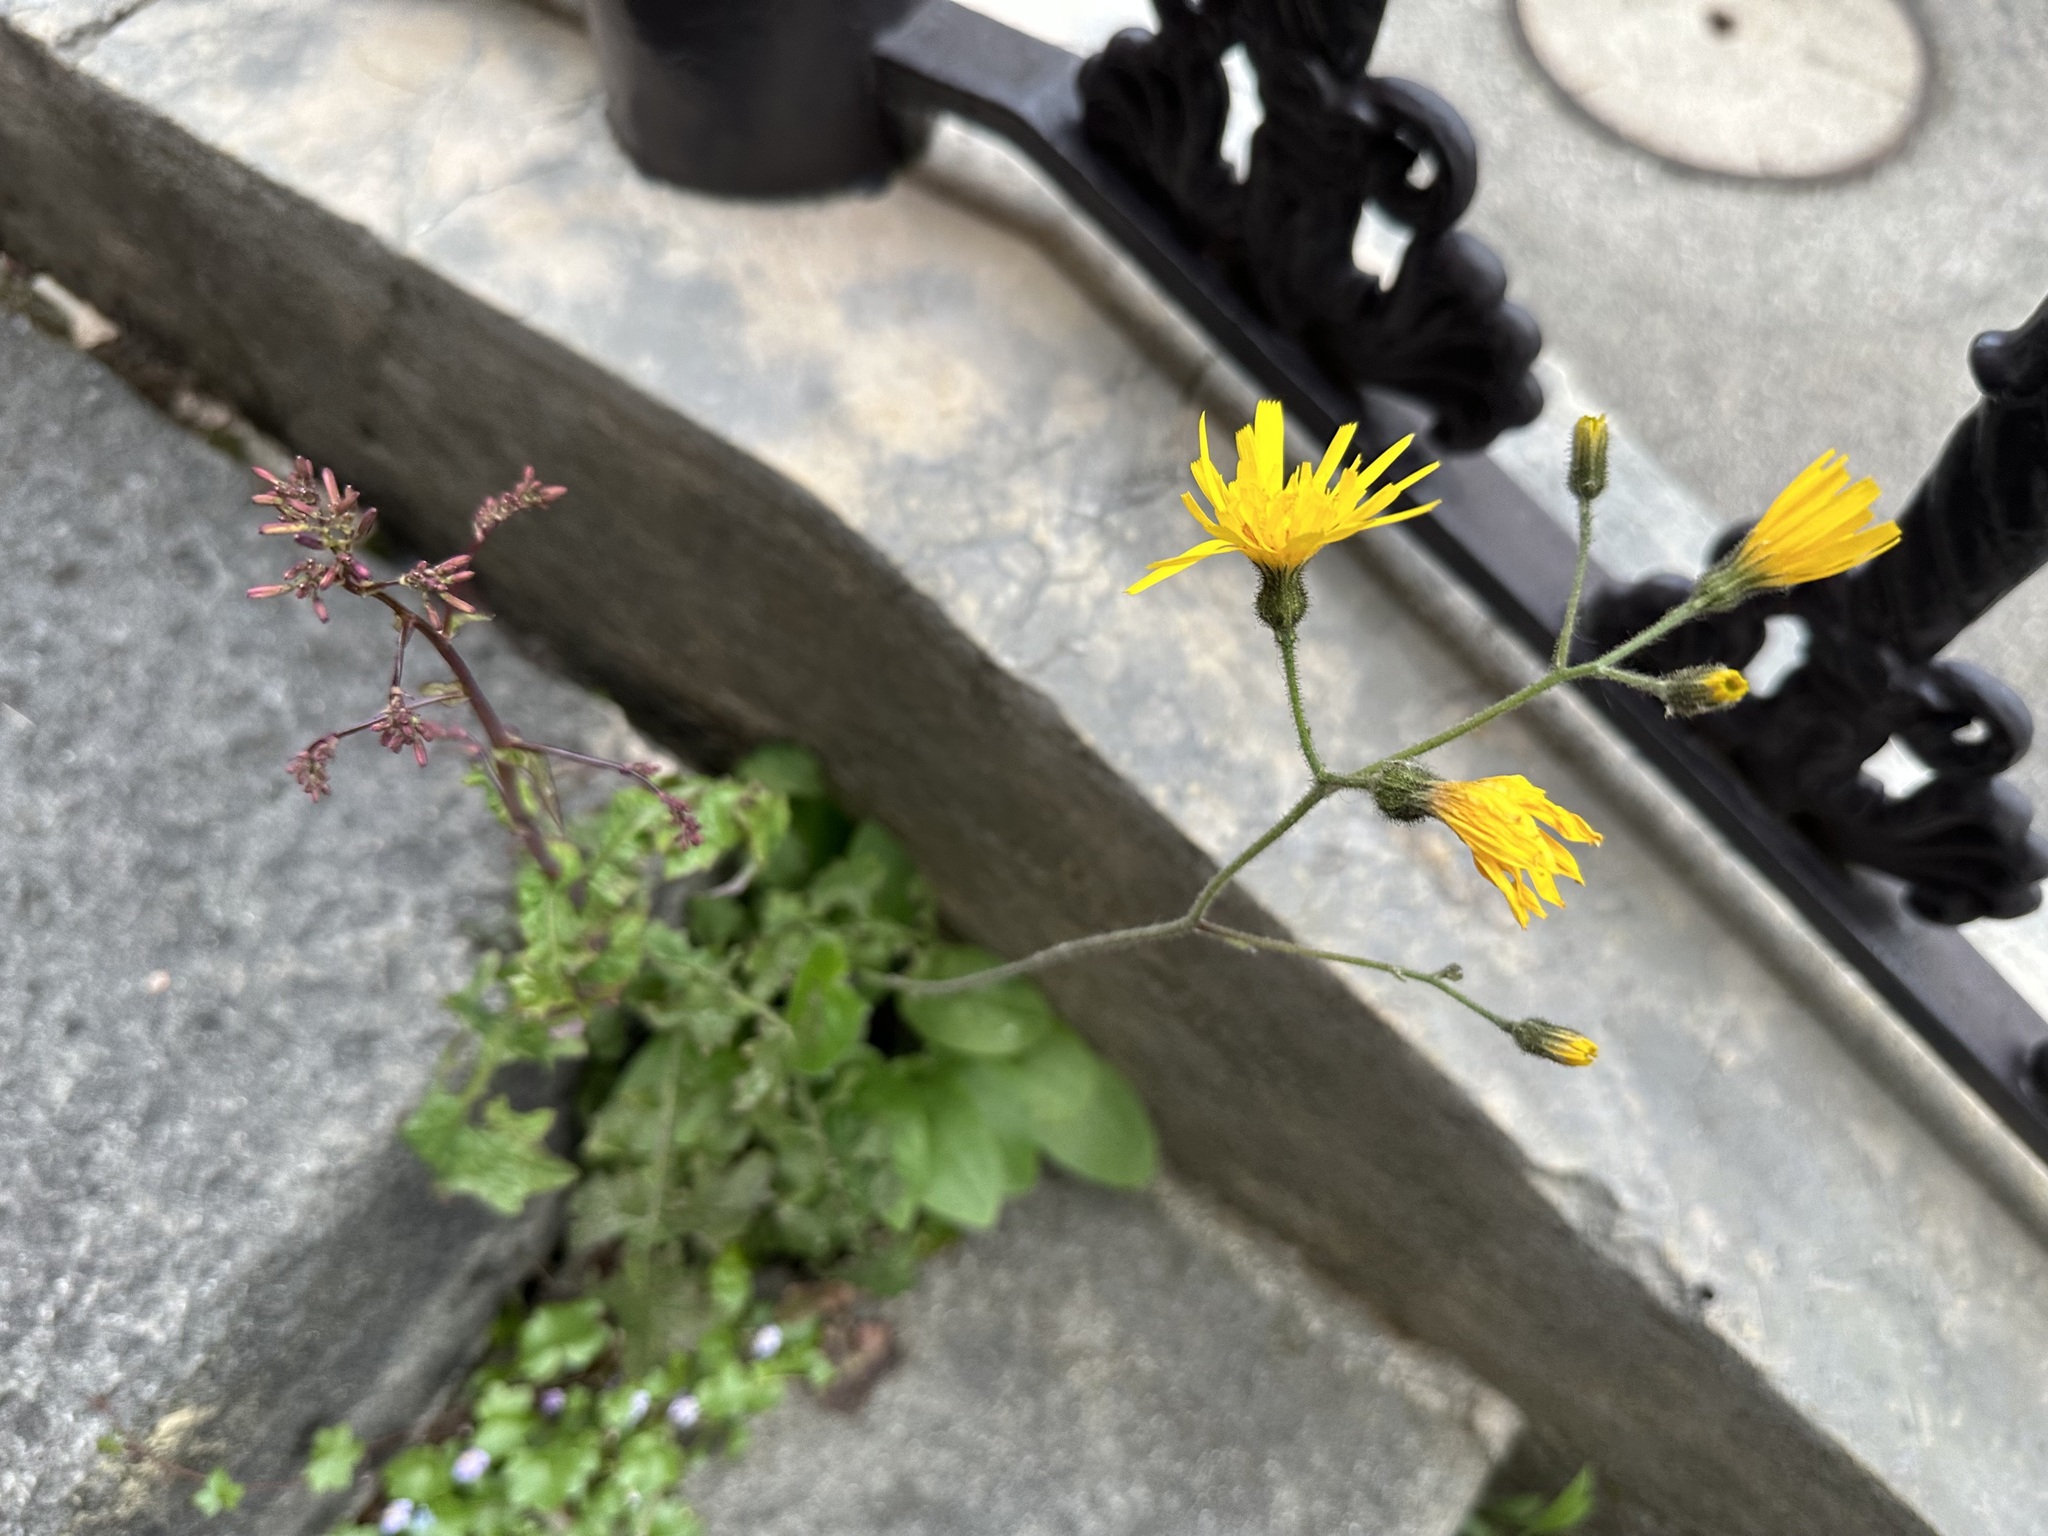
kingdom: Plantae
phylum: Tracheophyta
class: Magnoliopsida
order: Asterales
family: Asteraceae
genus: Hieracium
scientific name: Hieracium murorum
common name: Wall hawkweed
